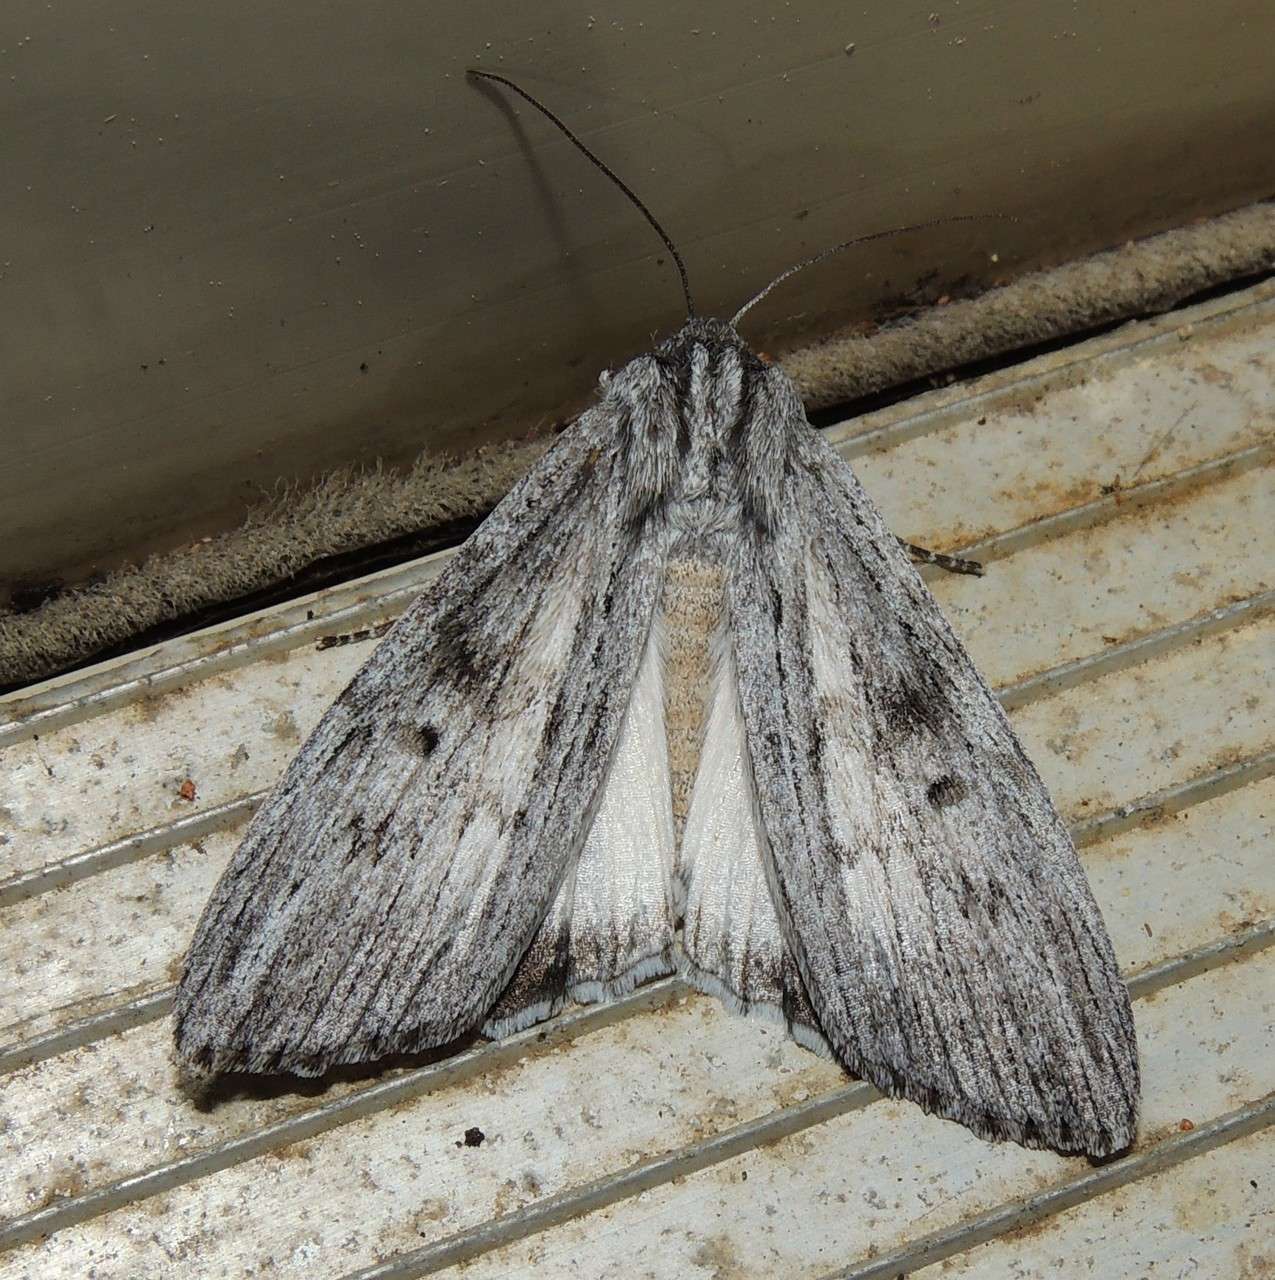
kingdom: Animalia
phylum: Arthropoda
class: Insecta
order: Lepidoptera
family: Geometridae
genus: Capusa
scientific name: Capusa senilis
